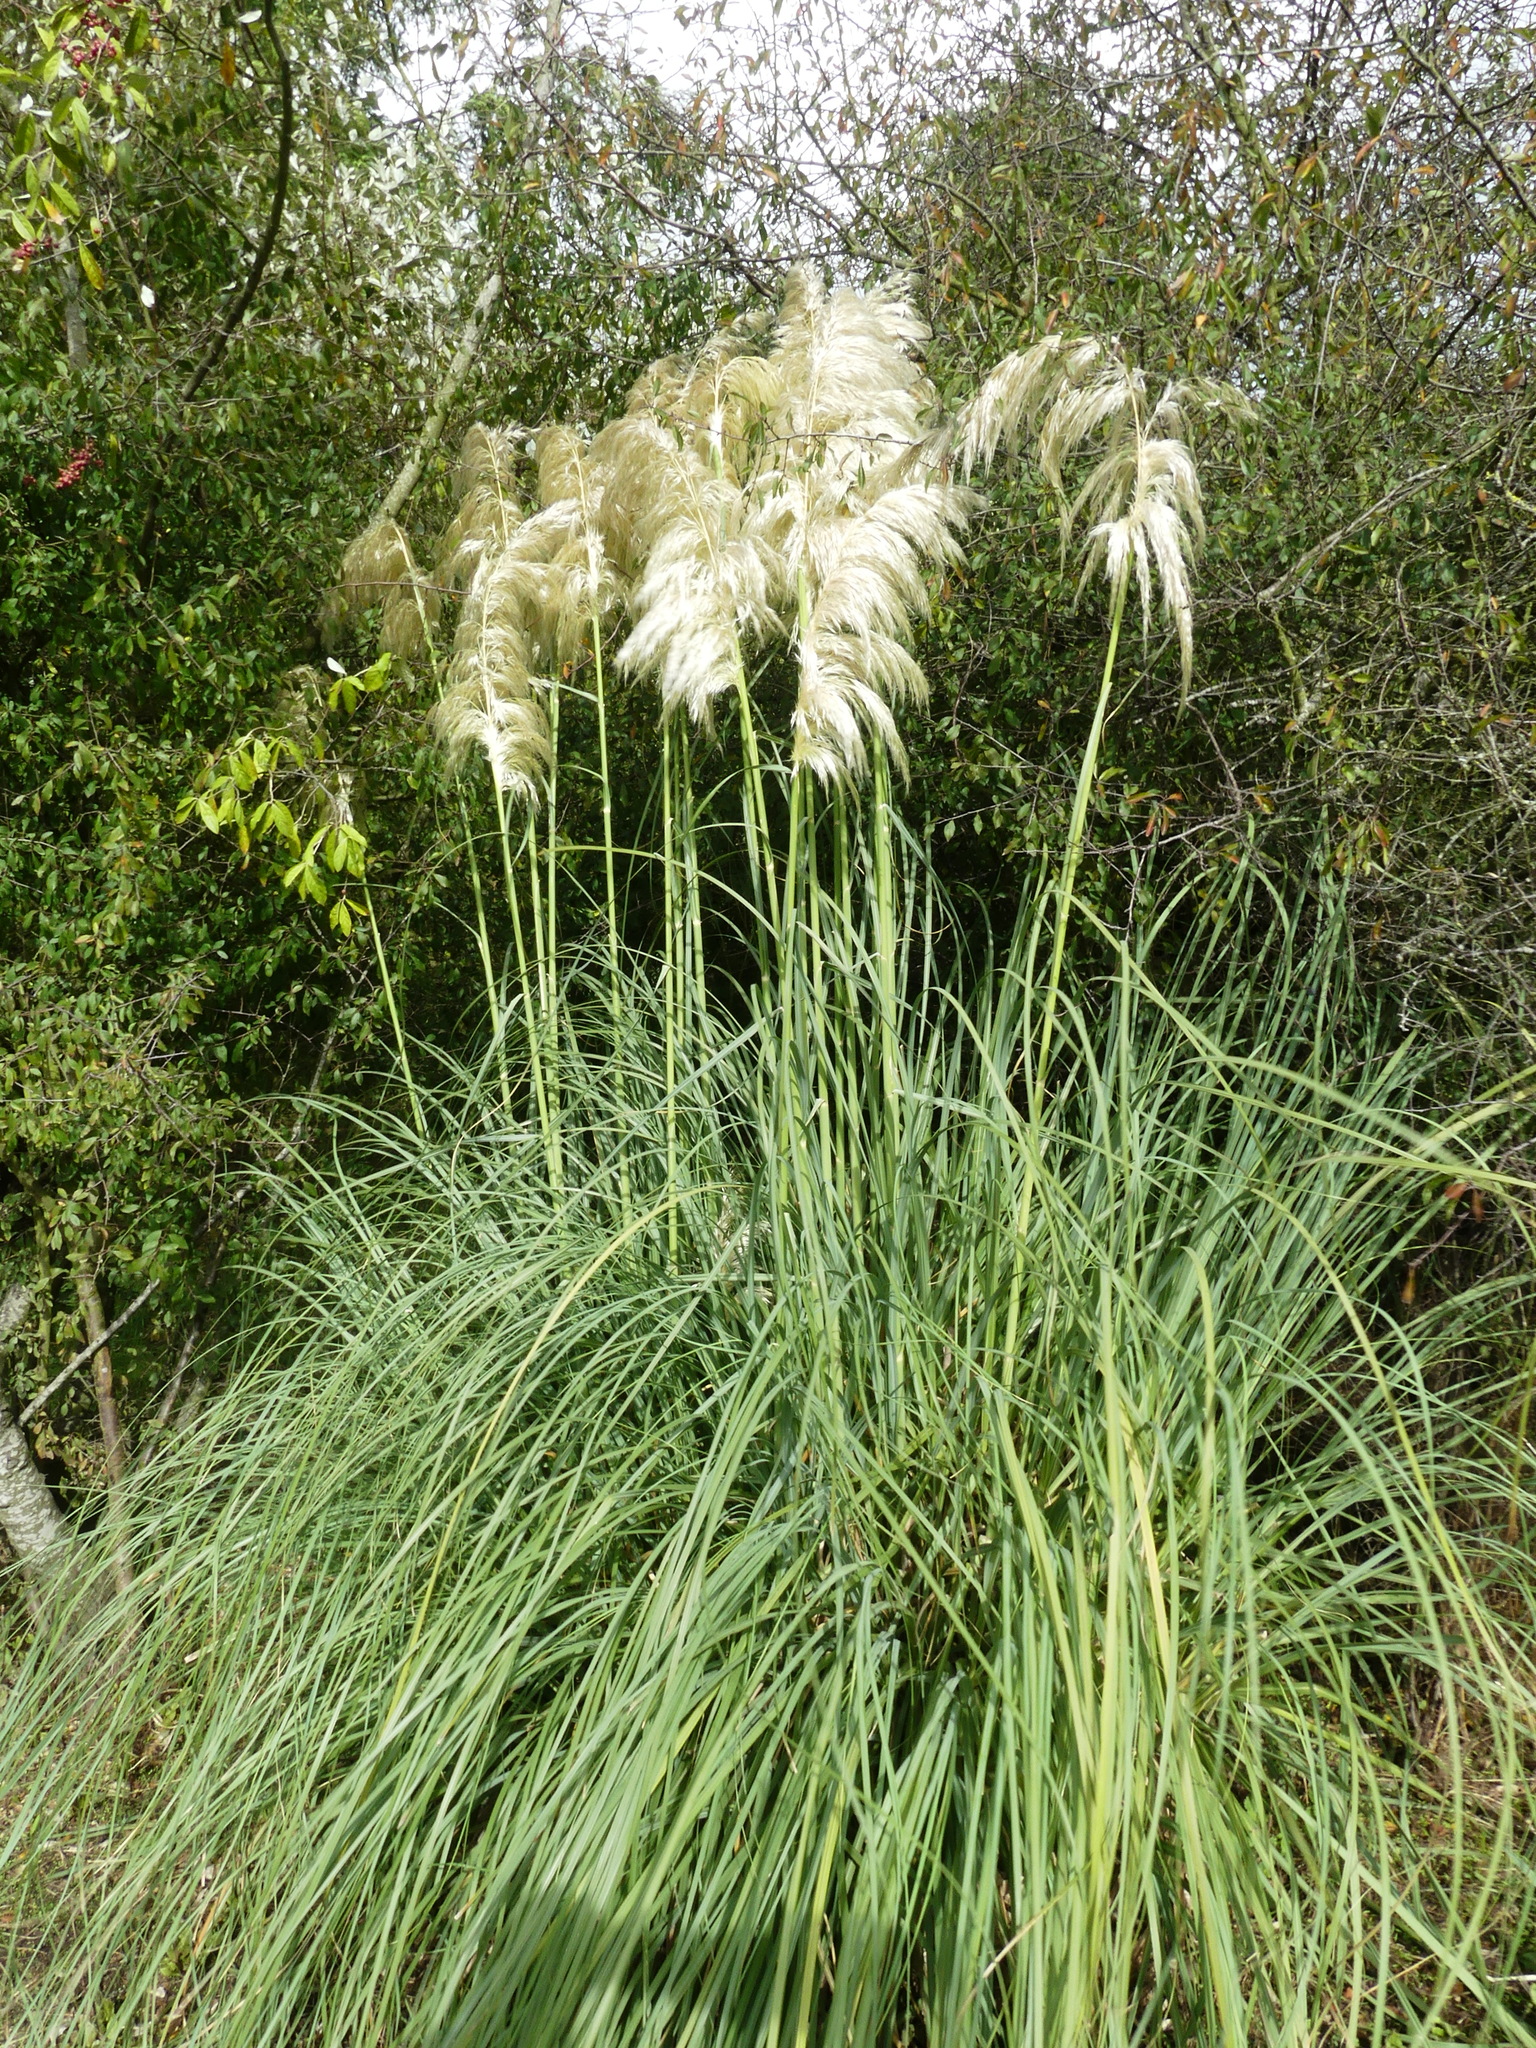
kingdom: Plantae
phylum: Tracheophyta
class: Liliopsida
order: Poales
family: Poaceae
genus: Cortaderia
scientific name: Cortaderia selloana
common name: Uruguayan pampas grass
